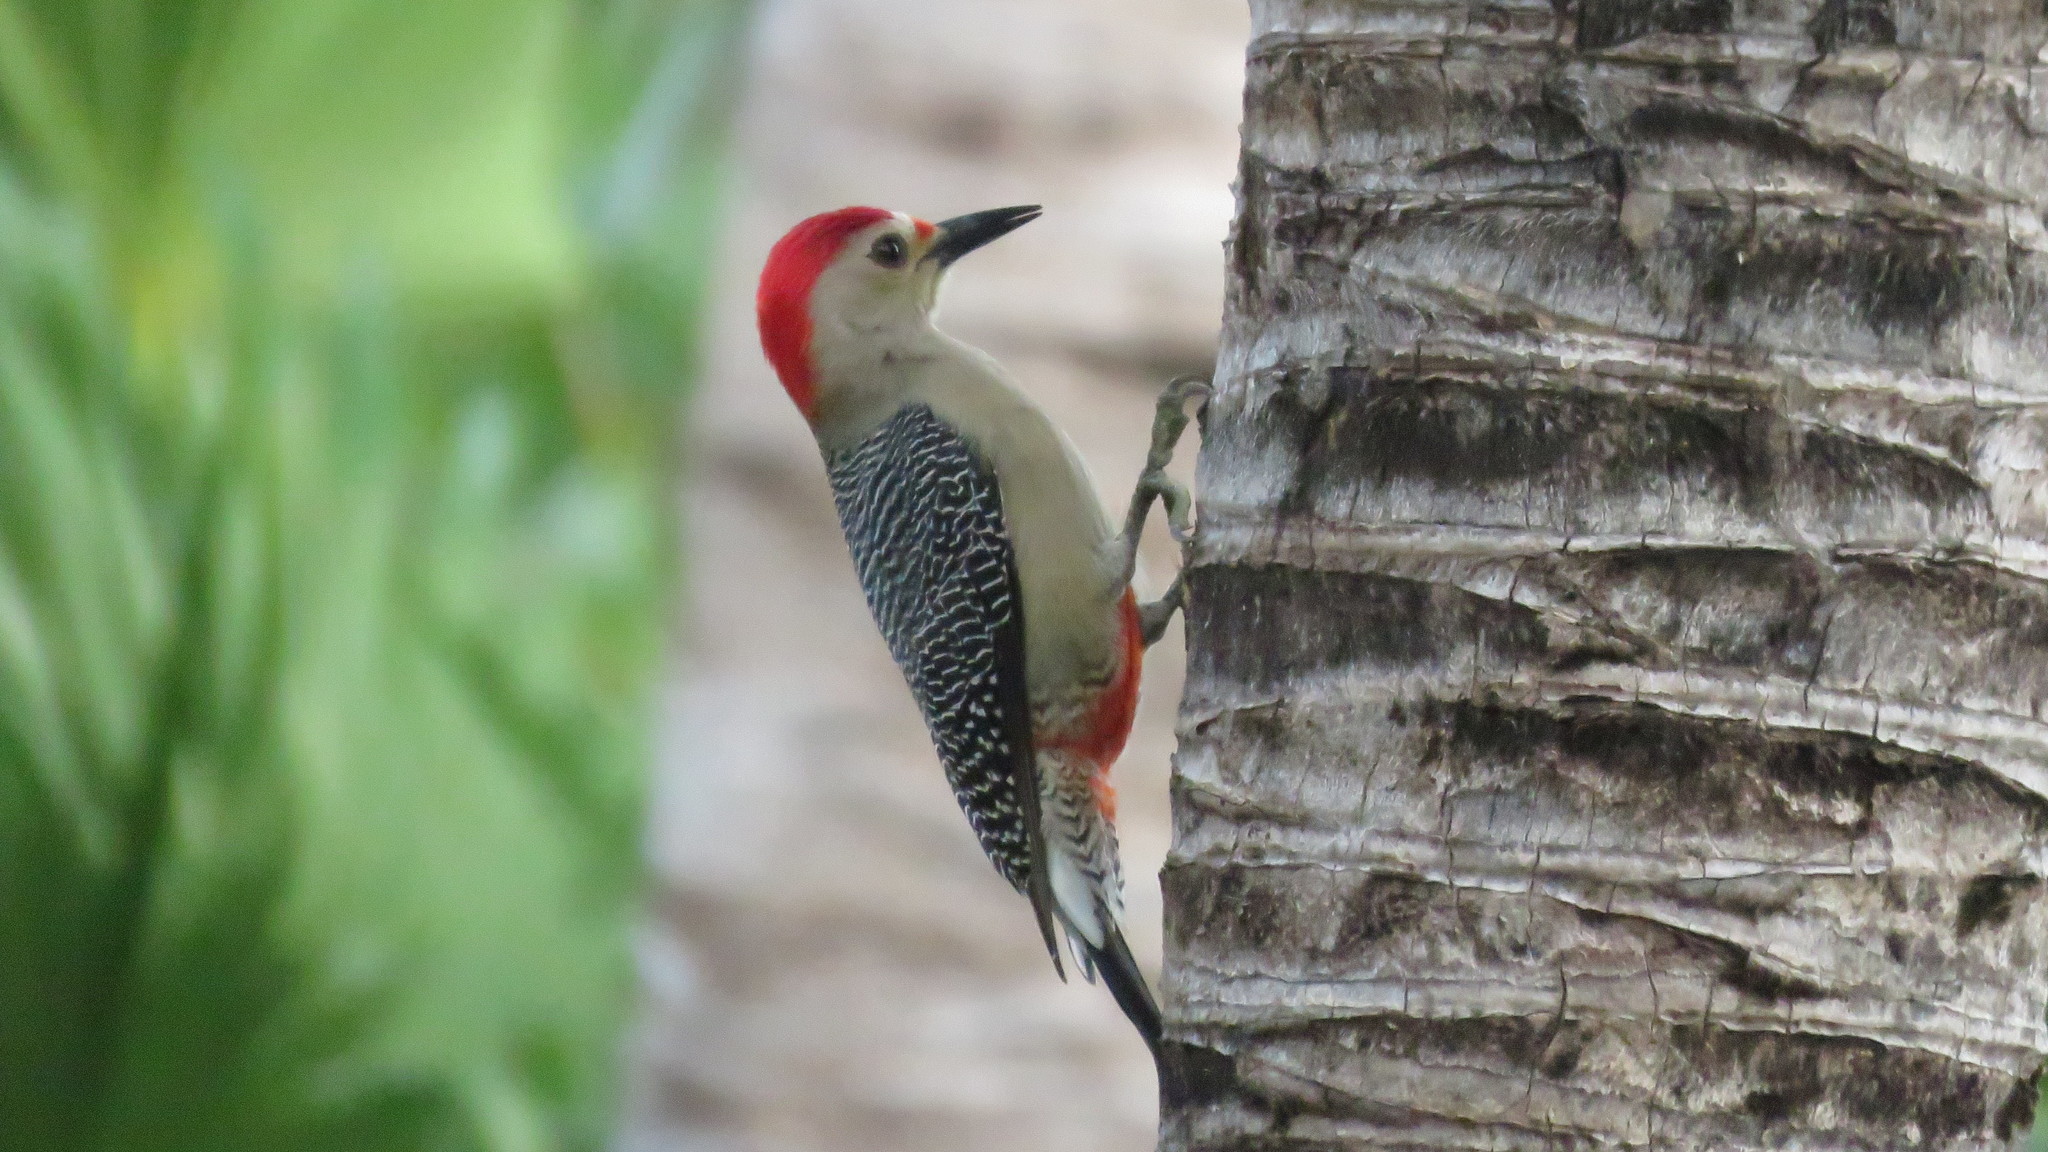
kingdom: Animalia
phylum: Chordata
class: Aves
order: Piciformes
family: Picidae
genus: Melanerpes
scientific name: Melanerpes aurifrons
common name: Golden-fronted woodpecker
